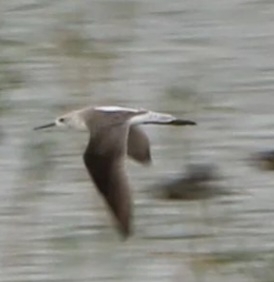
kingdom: Animalia
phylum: Chordata
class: Aves
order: Charadriiformes
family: Scolopacidae
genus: Tringa
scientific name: Tringa stagnatilis
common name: Marsh sandpiper
